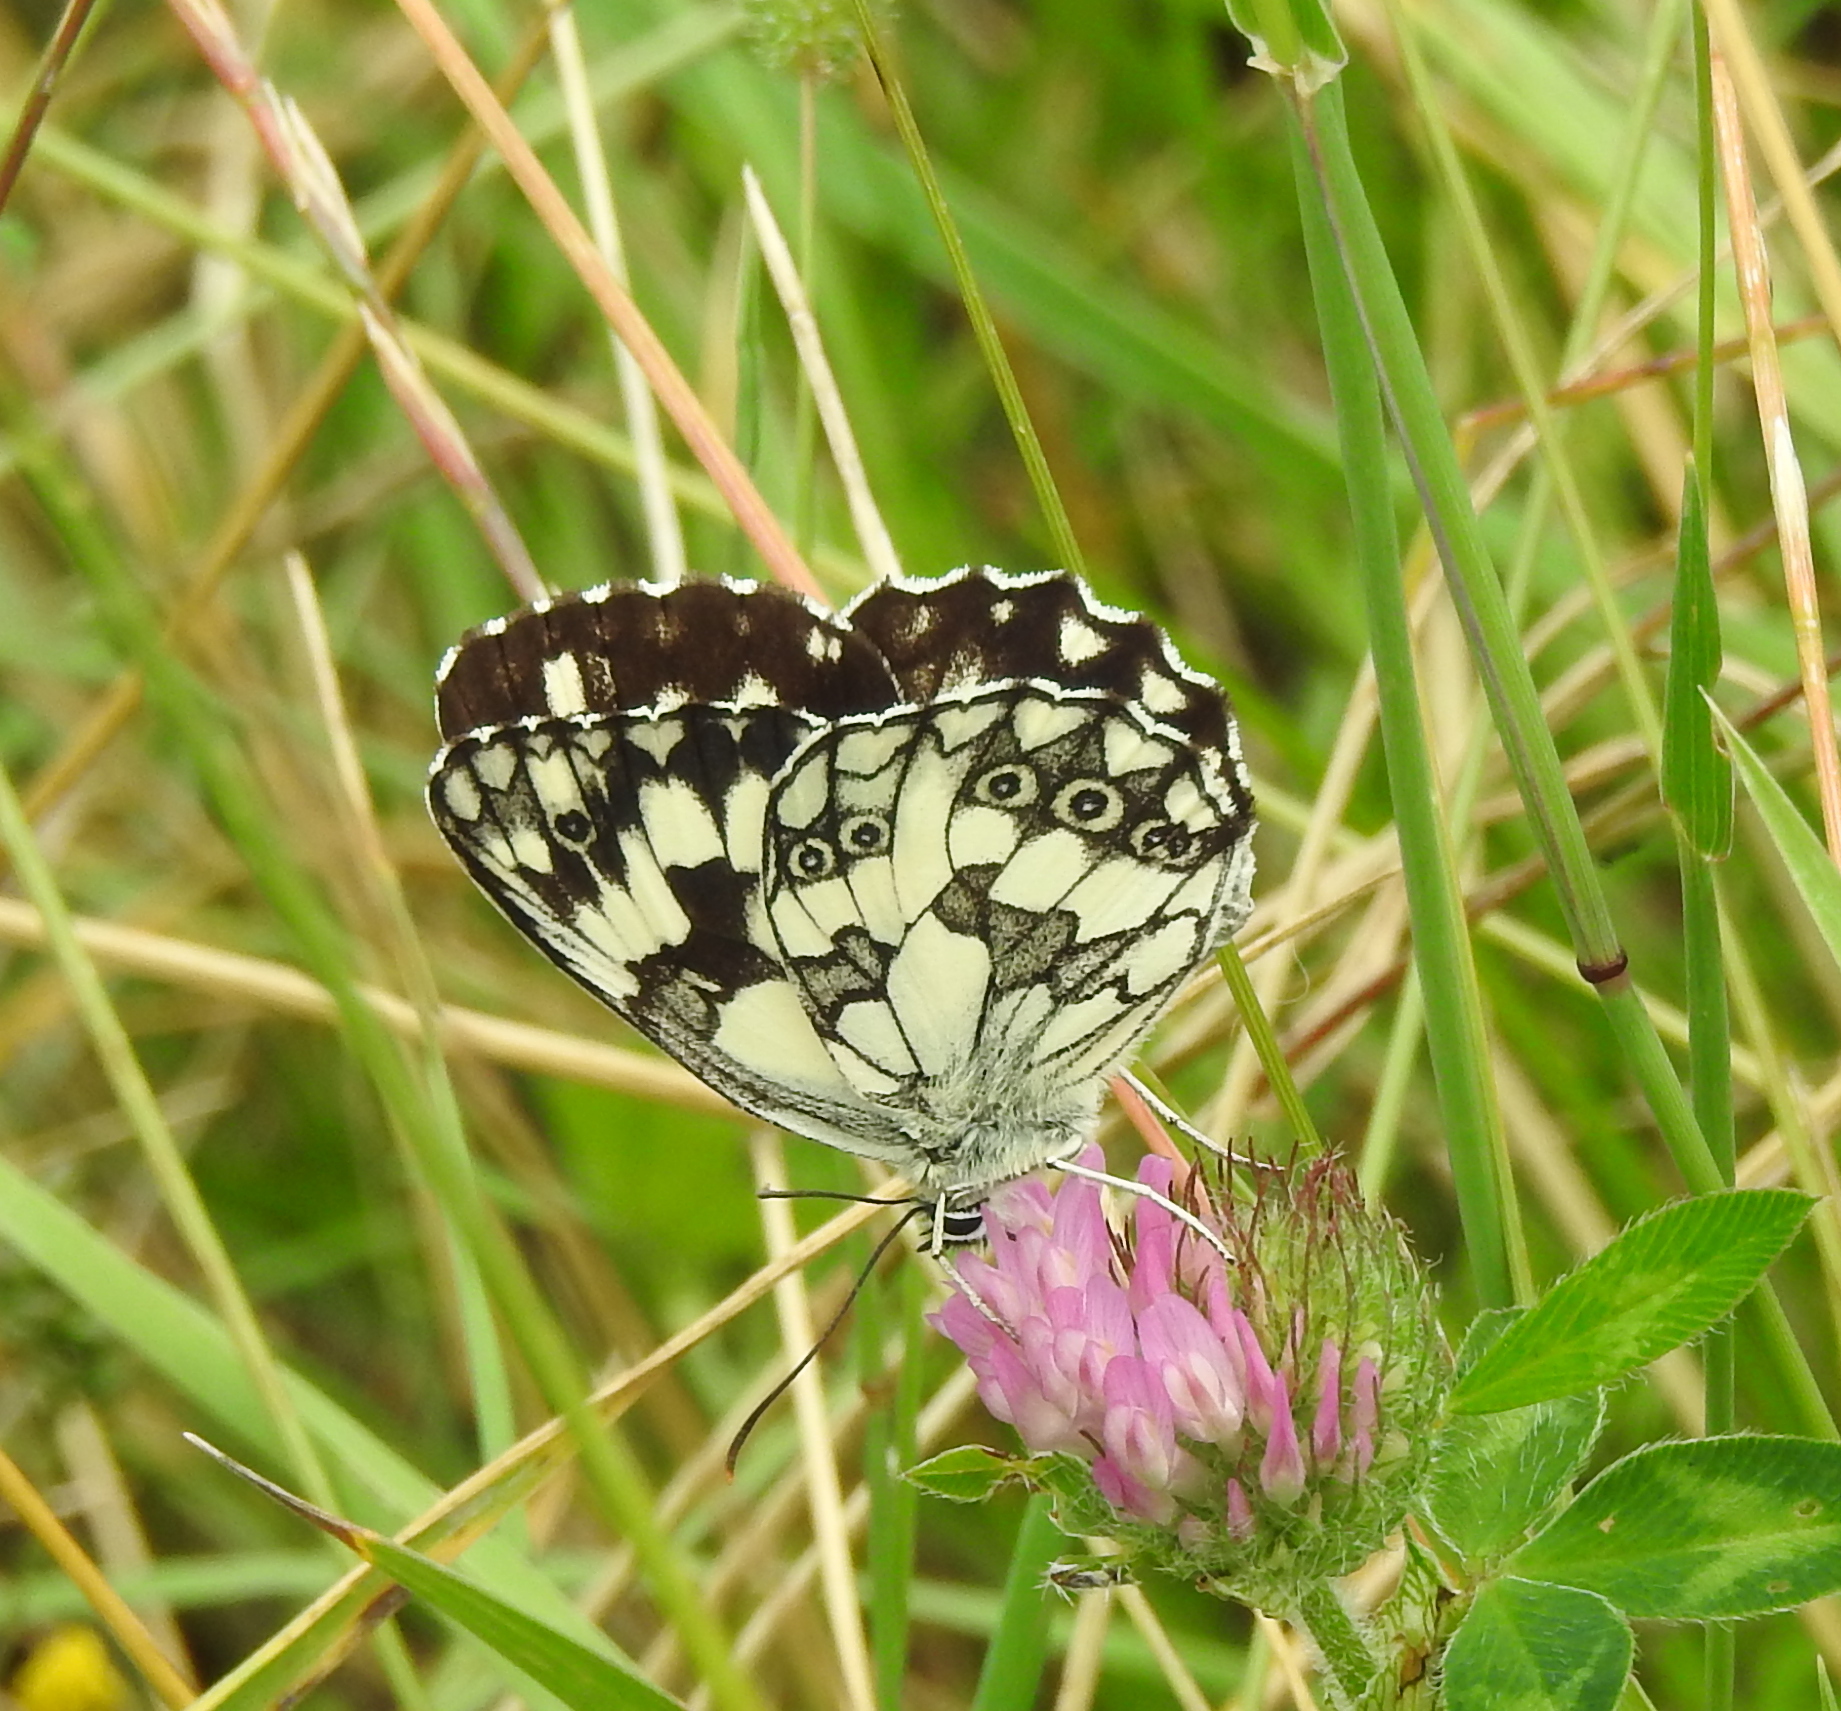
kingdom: Animalia
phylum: Arthropoda
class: Insecta
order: Lepidoptera
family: Nymphalidae
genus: Melanargia
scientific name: Melanargia galathea
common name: Marbled white
